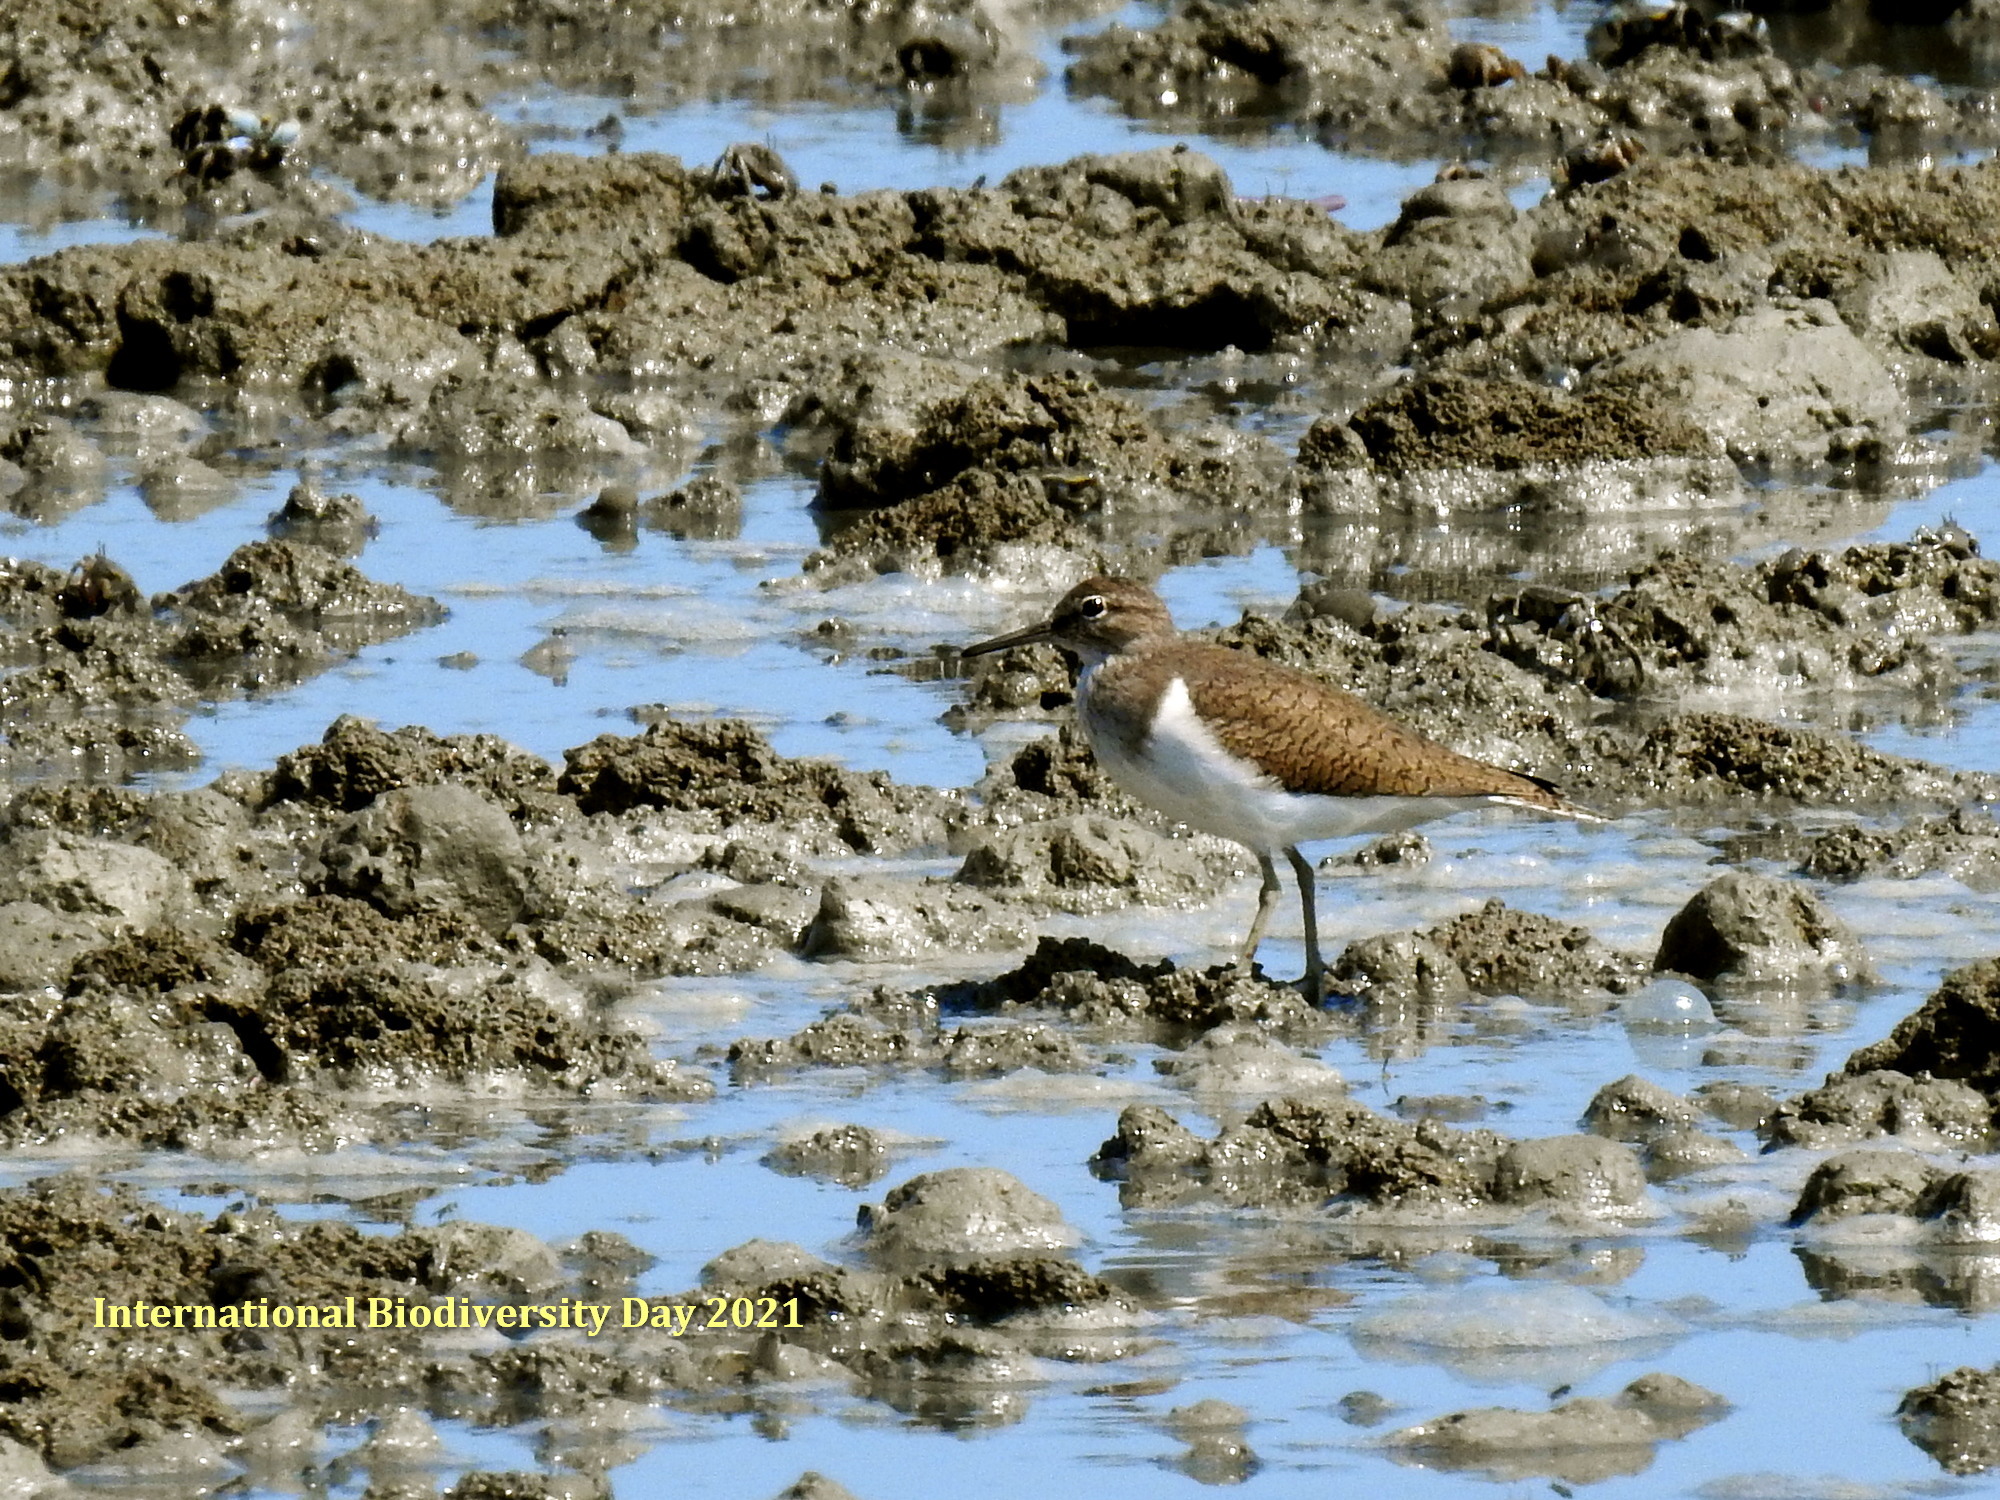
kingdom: Animalia
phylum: Chordata
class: Aves
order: Charadriiformes
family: Scolopacidae
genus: Actitis
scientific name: Actitis hypoleucos
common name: Common sandpiper
